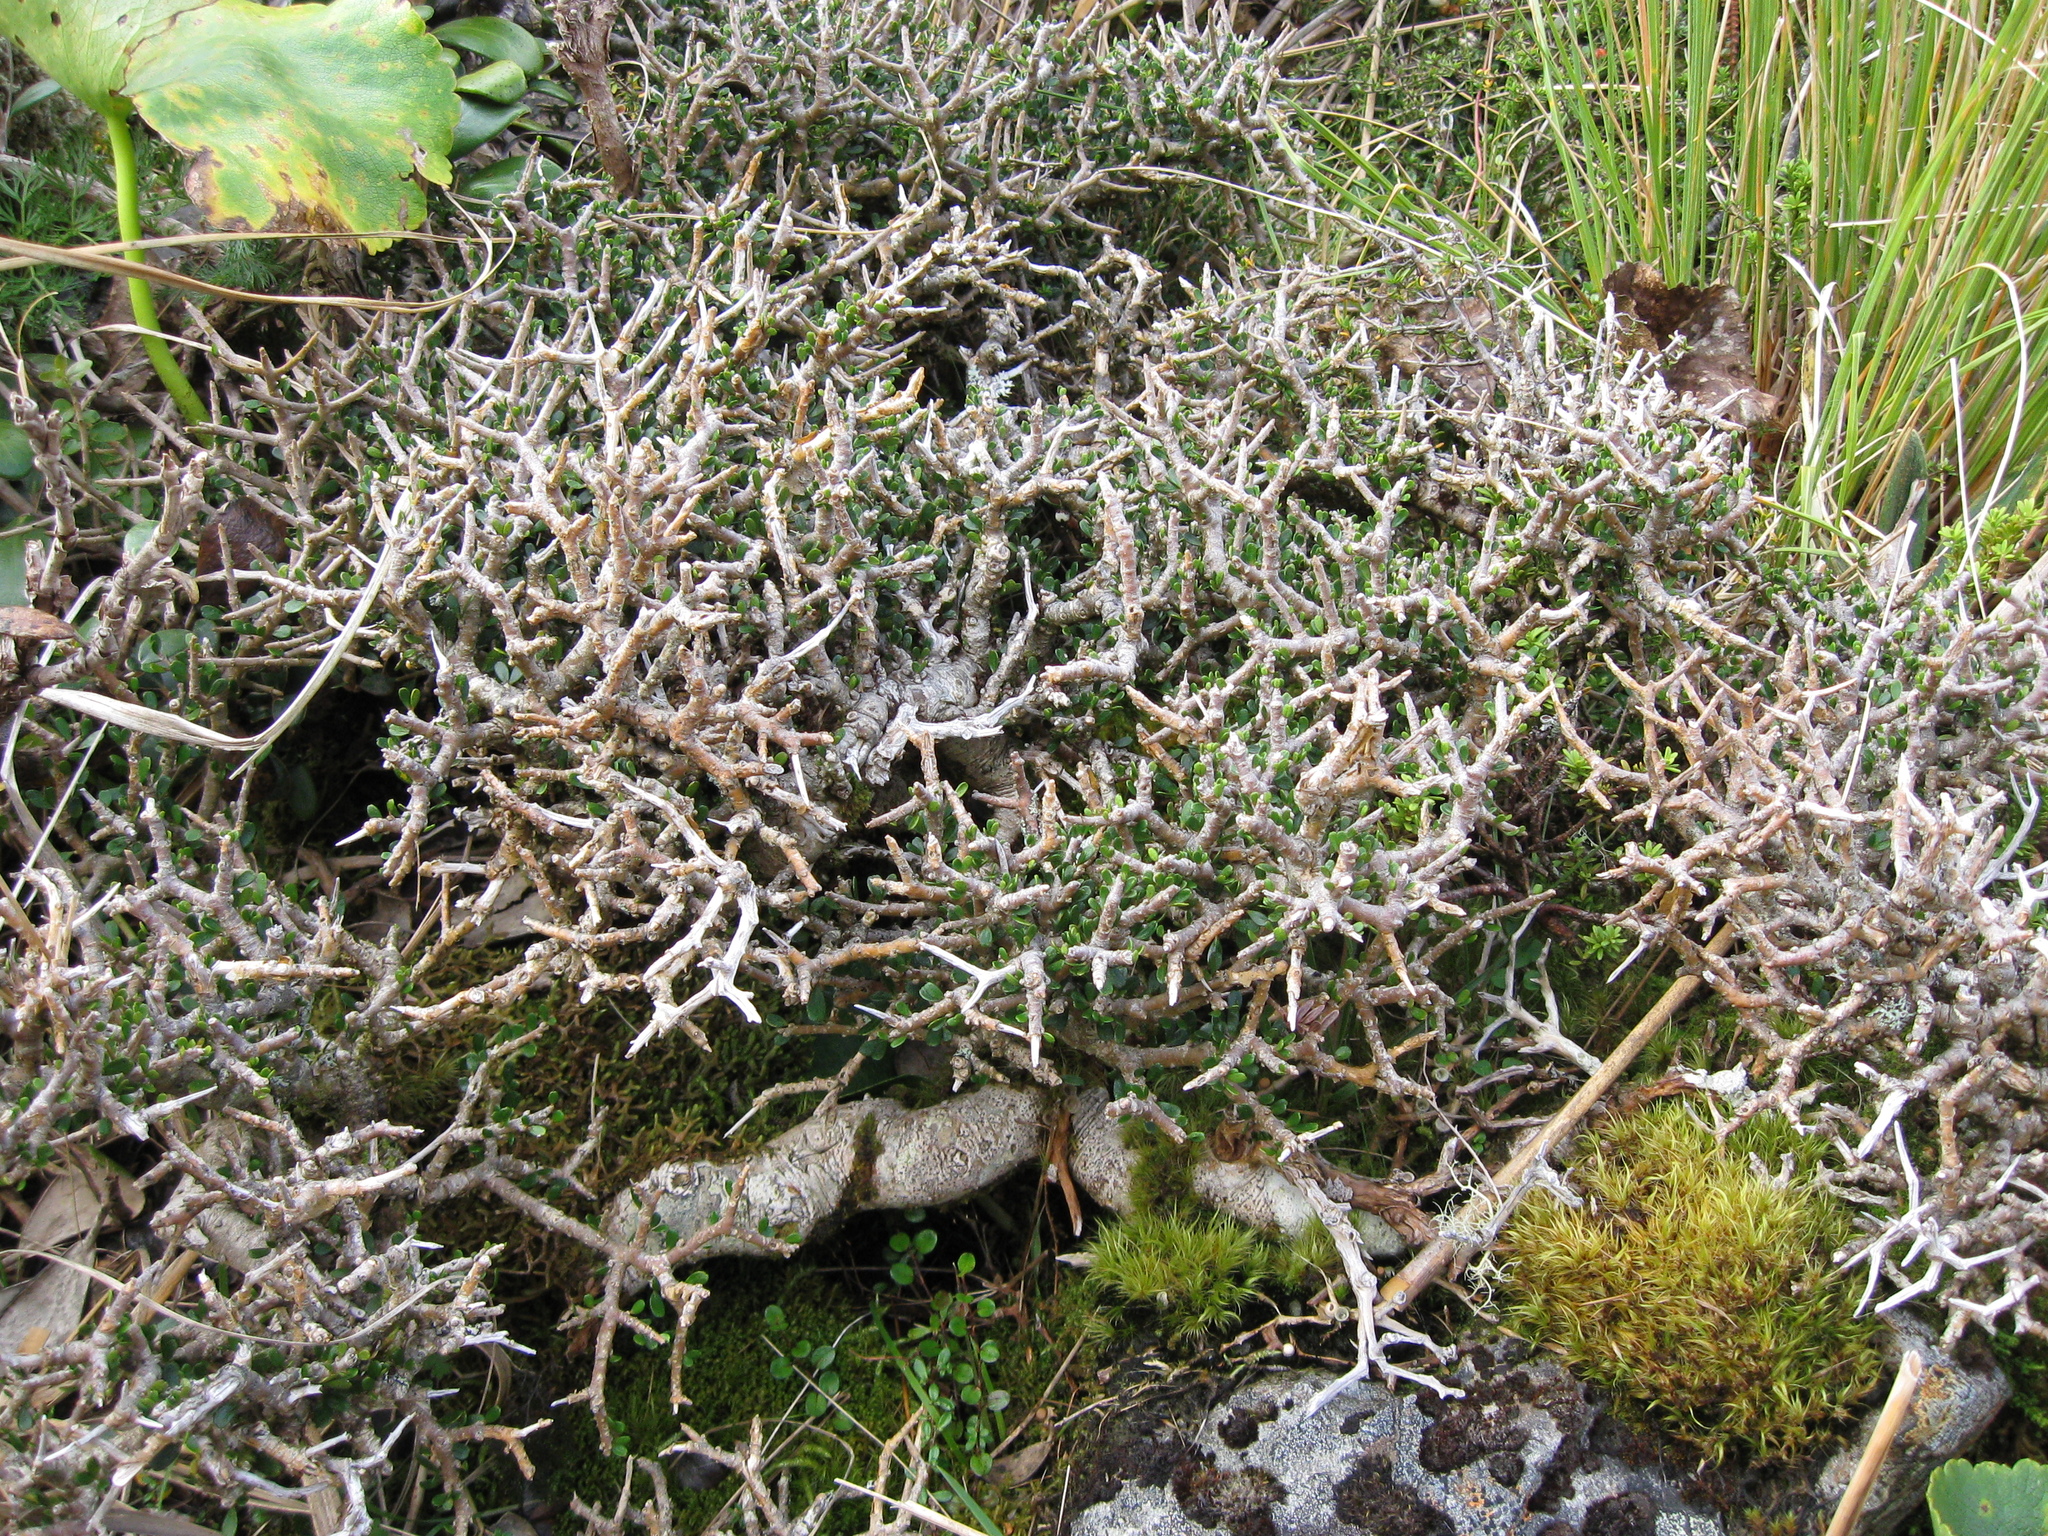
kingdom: Plantae
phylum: Tracheophyta
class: Magnoliopsida
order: Malpighiales
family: Violaceae
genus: Melicytus
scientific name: Melicytus alpinus
